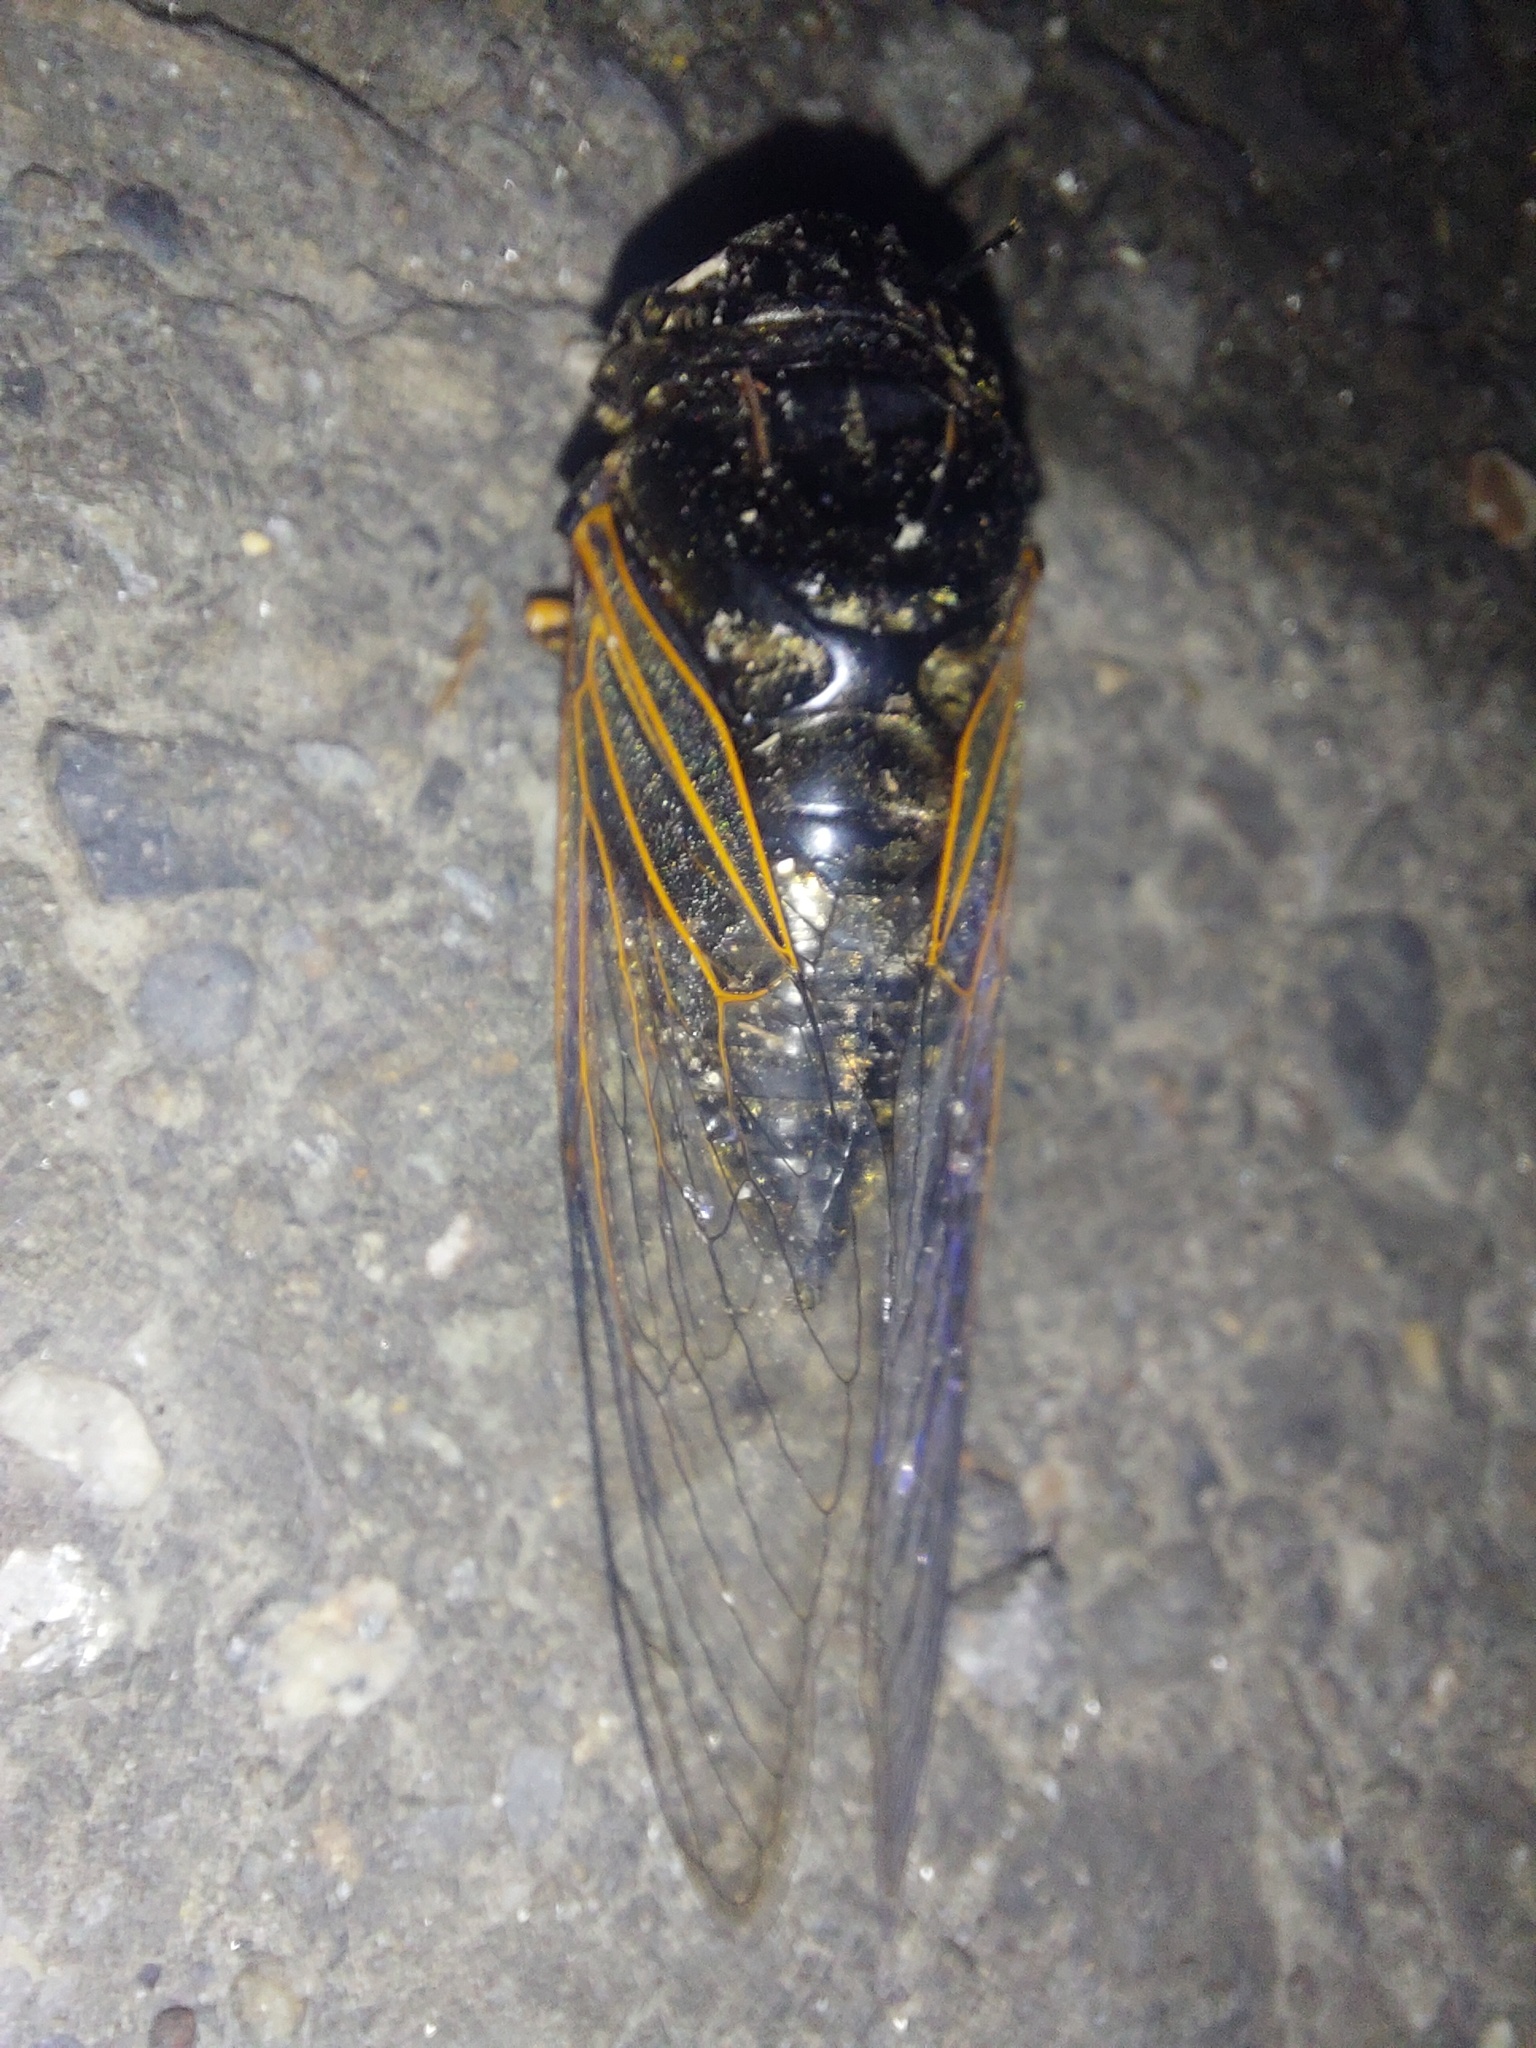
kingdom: Animalia
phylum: Arthropoda
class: Insecta
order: Hemiptera
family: Cicadidae
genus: Cryptotympana
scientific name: Cryptotympana atrata
